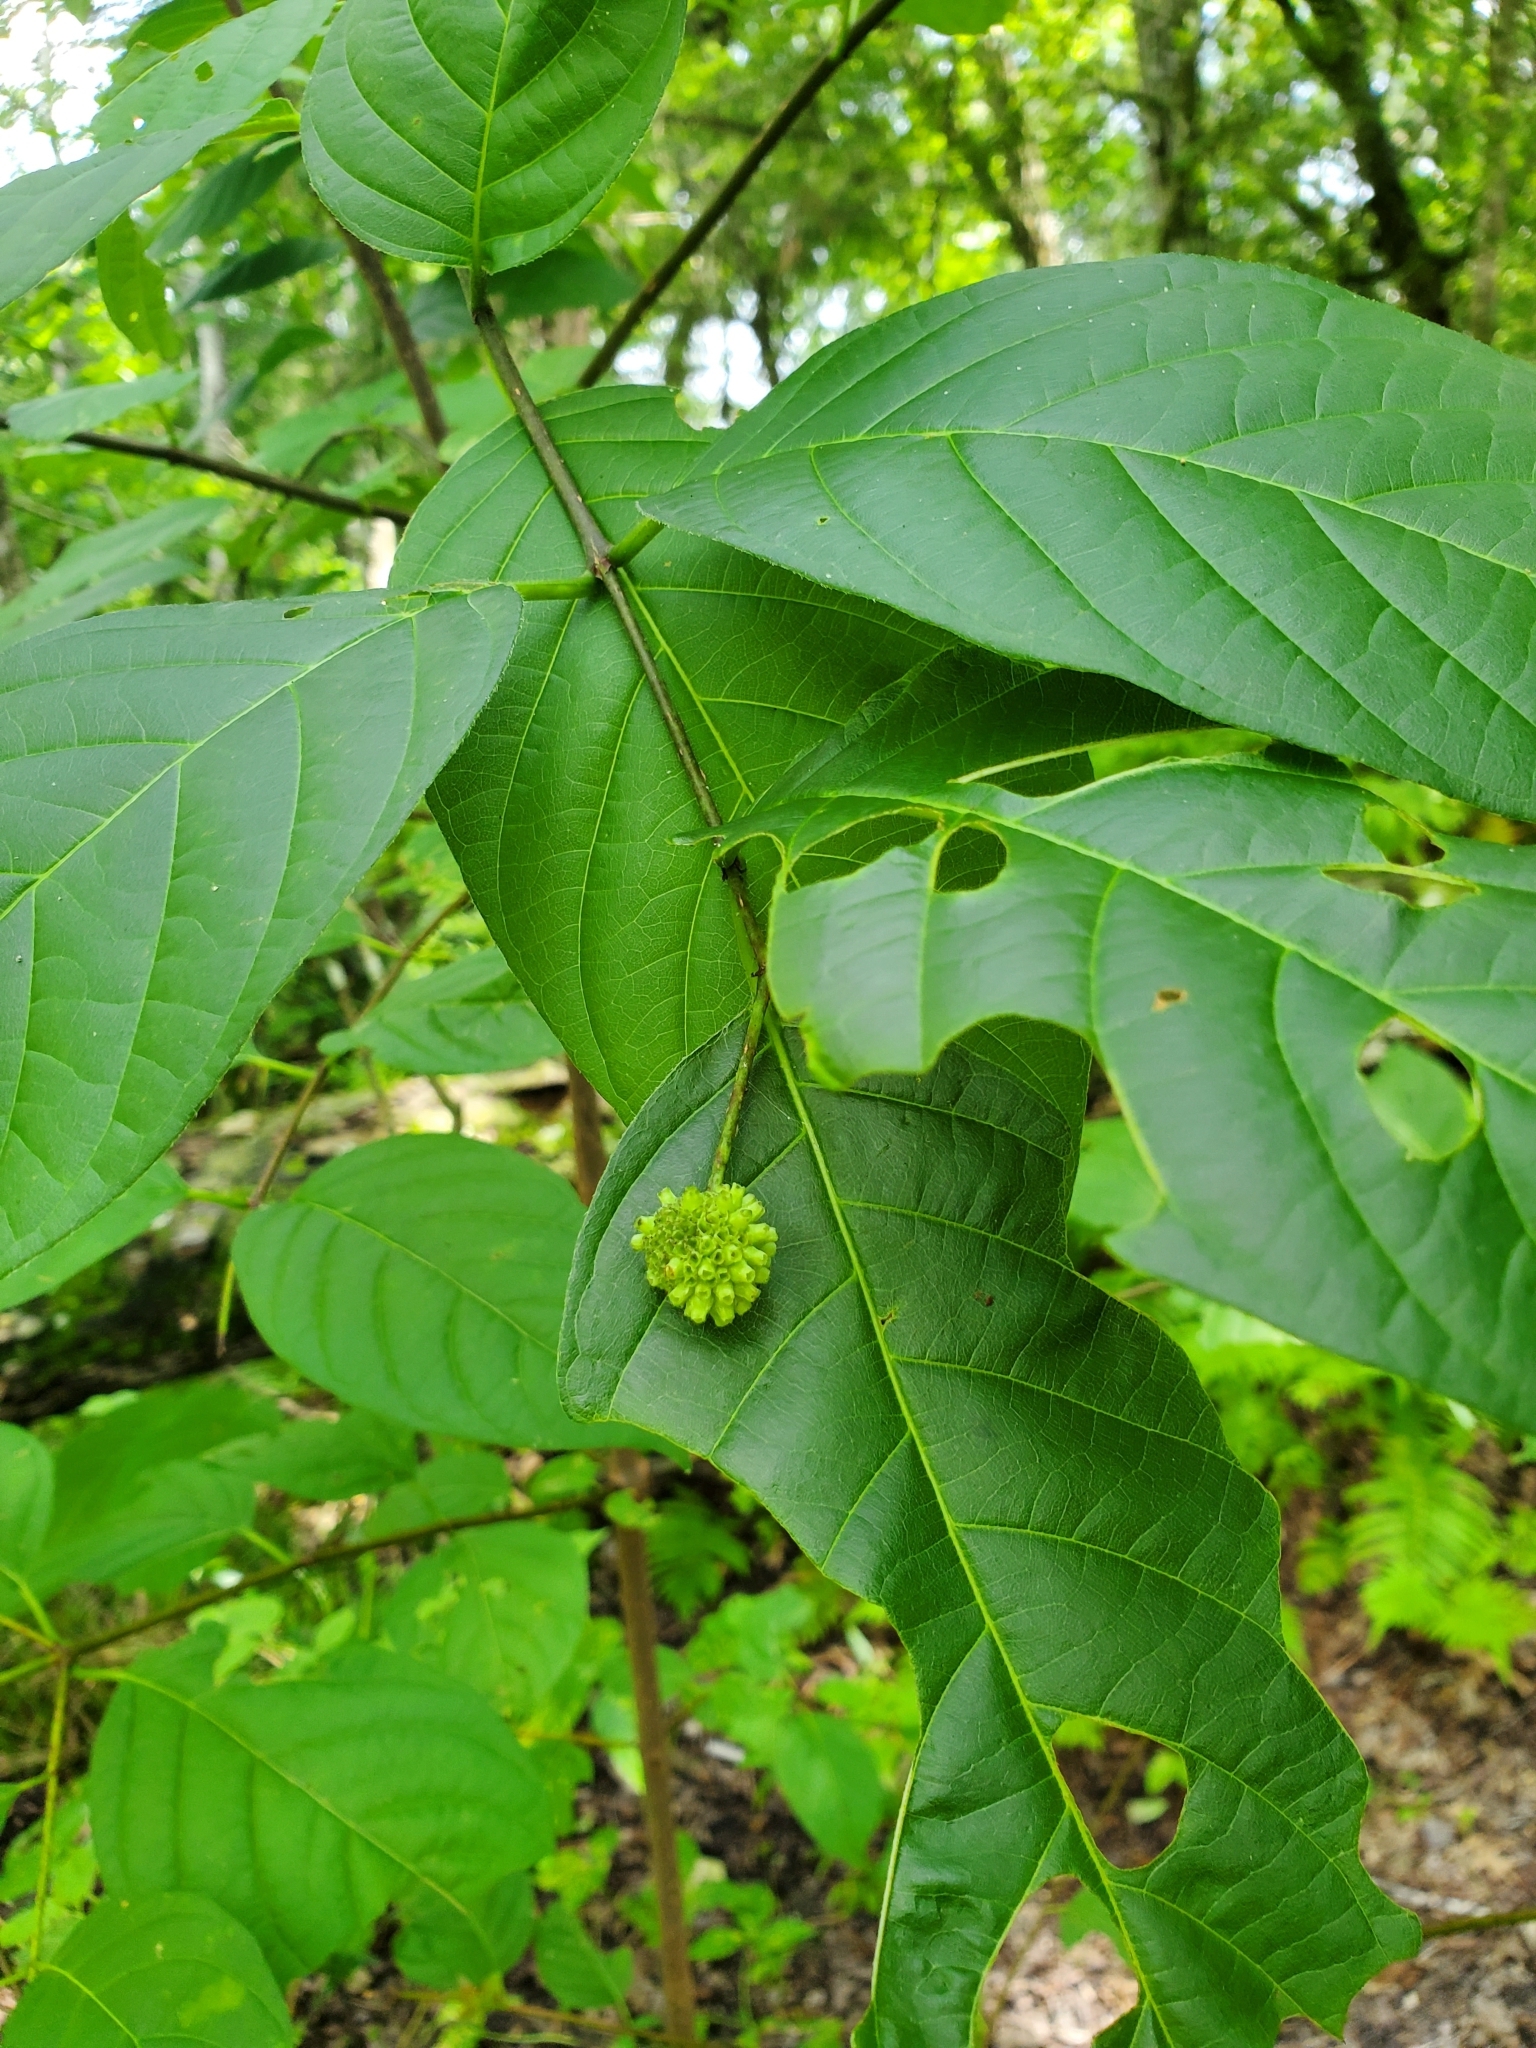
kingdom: Plantae
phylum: Tracheophyta
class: Magnoliopsida
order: Gentianales
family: Rubiaceae
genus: Cephalanthus
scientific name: Cephalanthus occidentalis
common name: Button-willow
